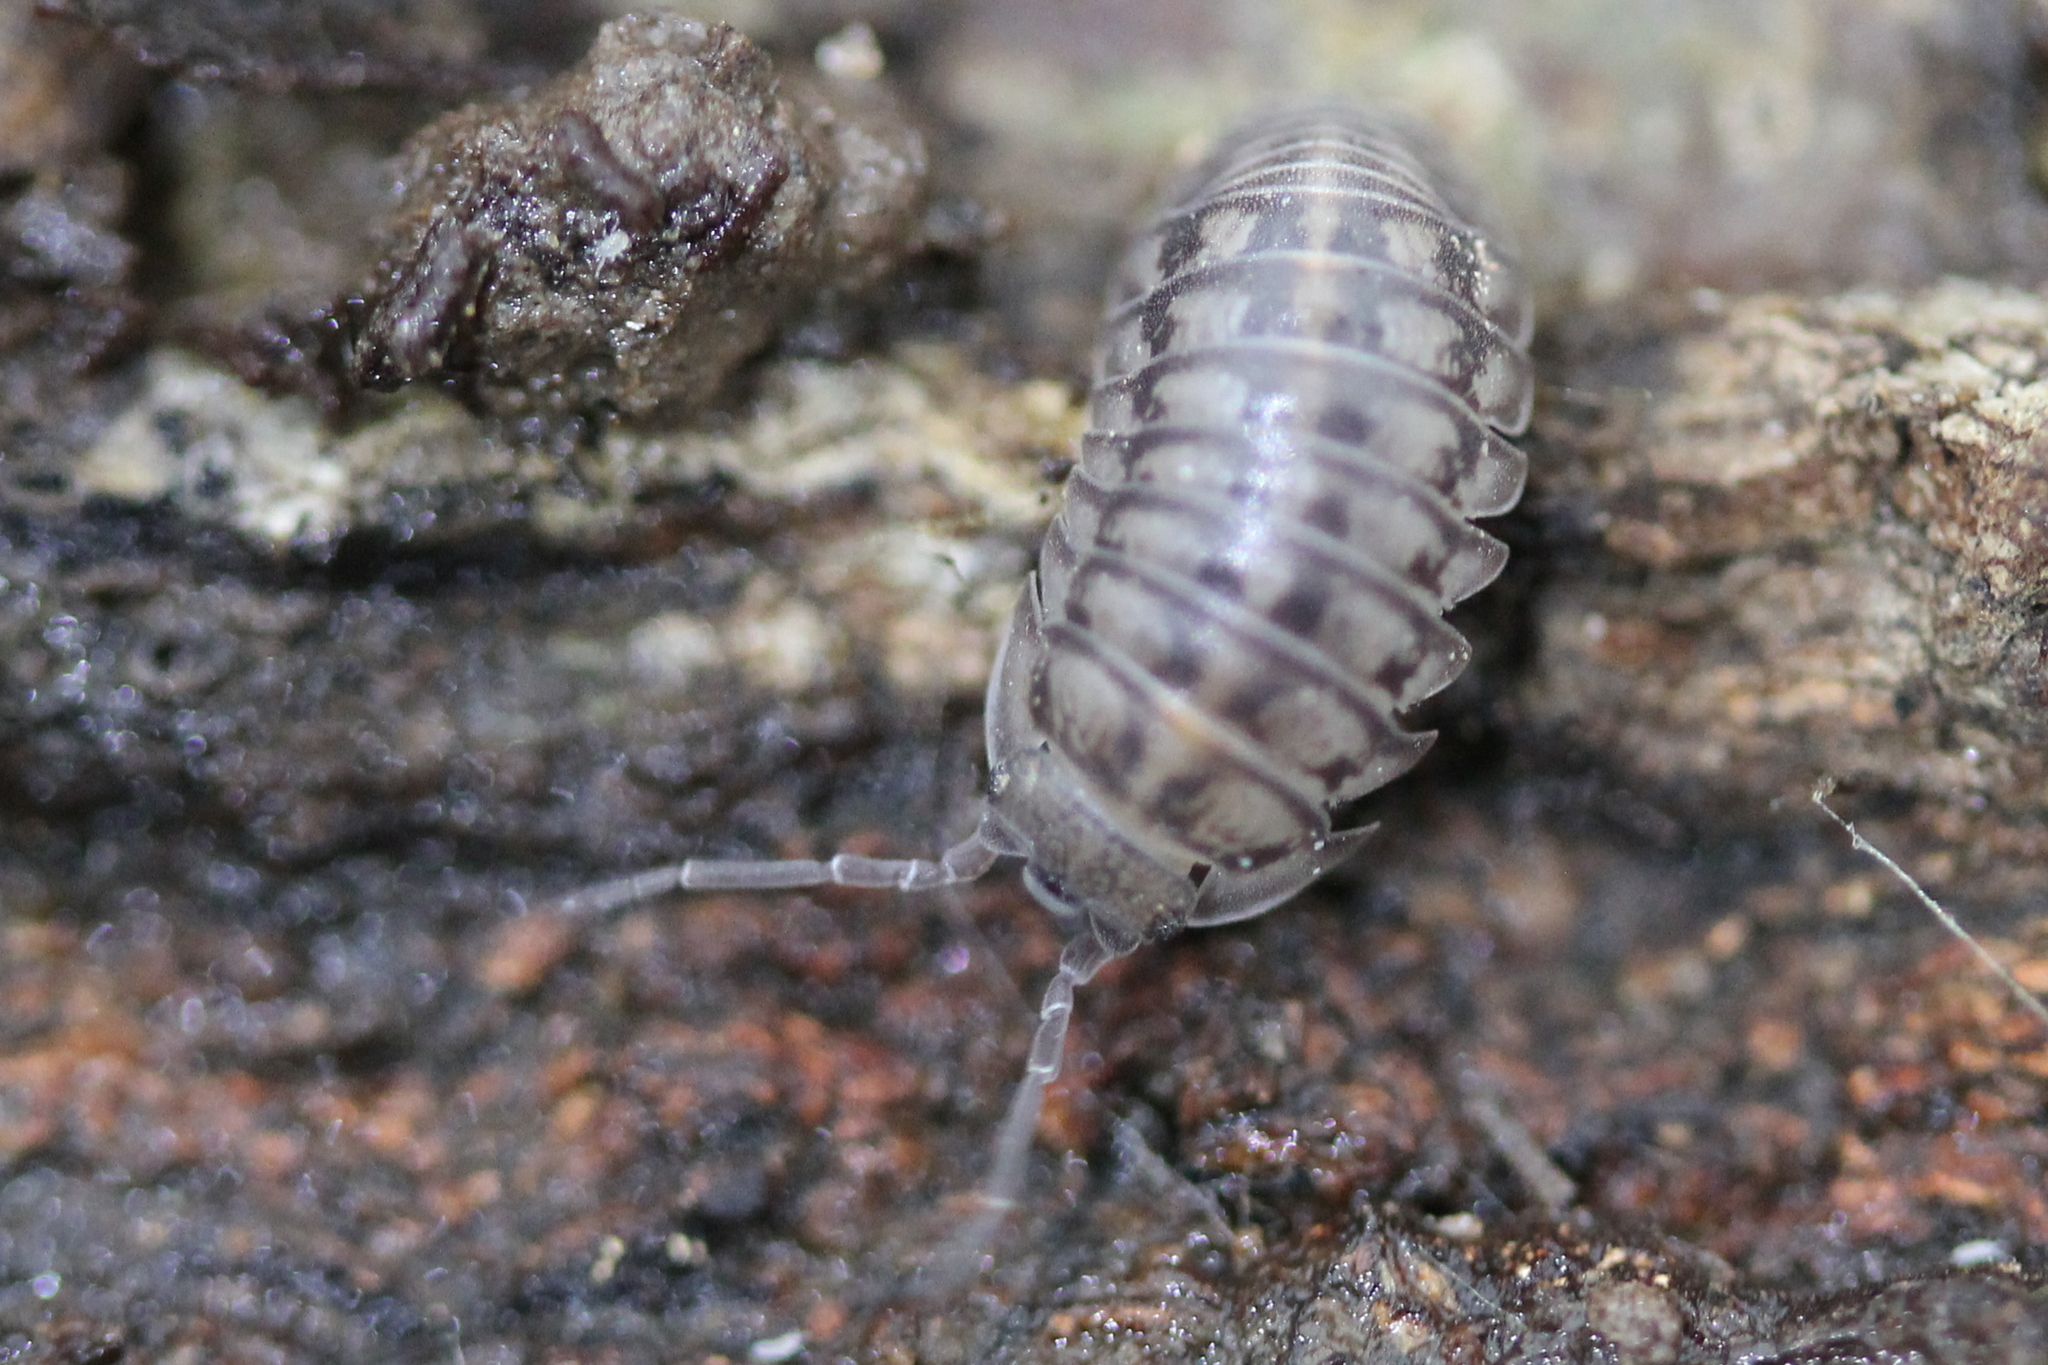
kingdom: Animalia
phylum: Arthropoda
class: Malacostraca
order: Isopoda
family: Armadillidiidae
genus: Armadillidium
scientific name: Armadillidium nasatum
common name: Isopod
